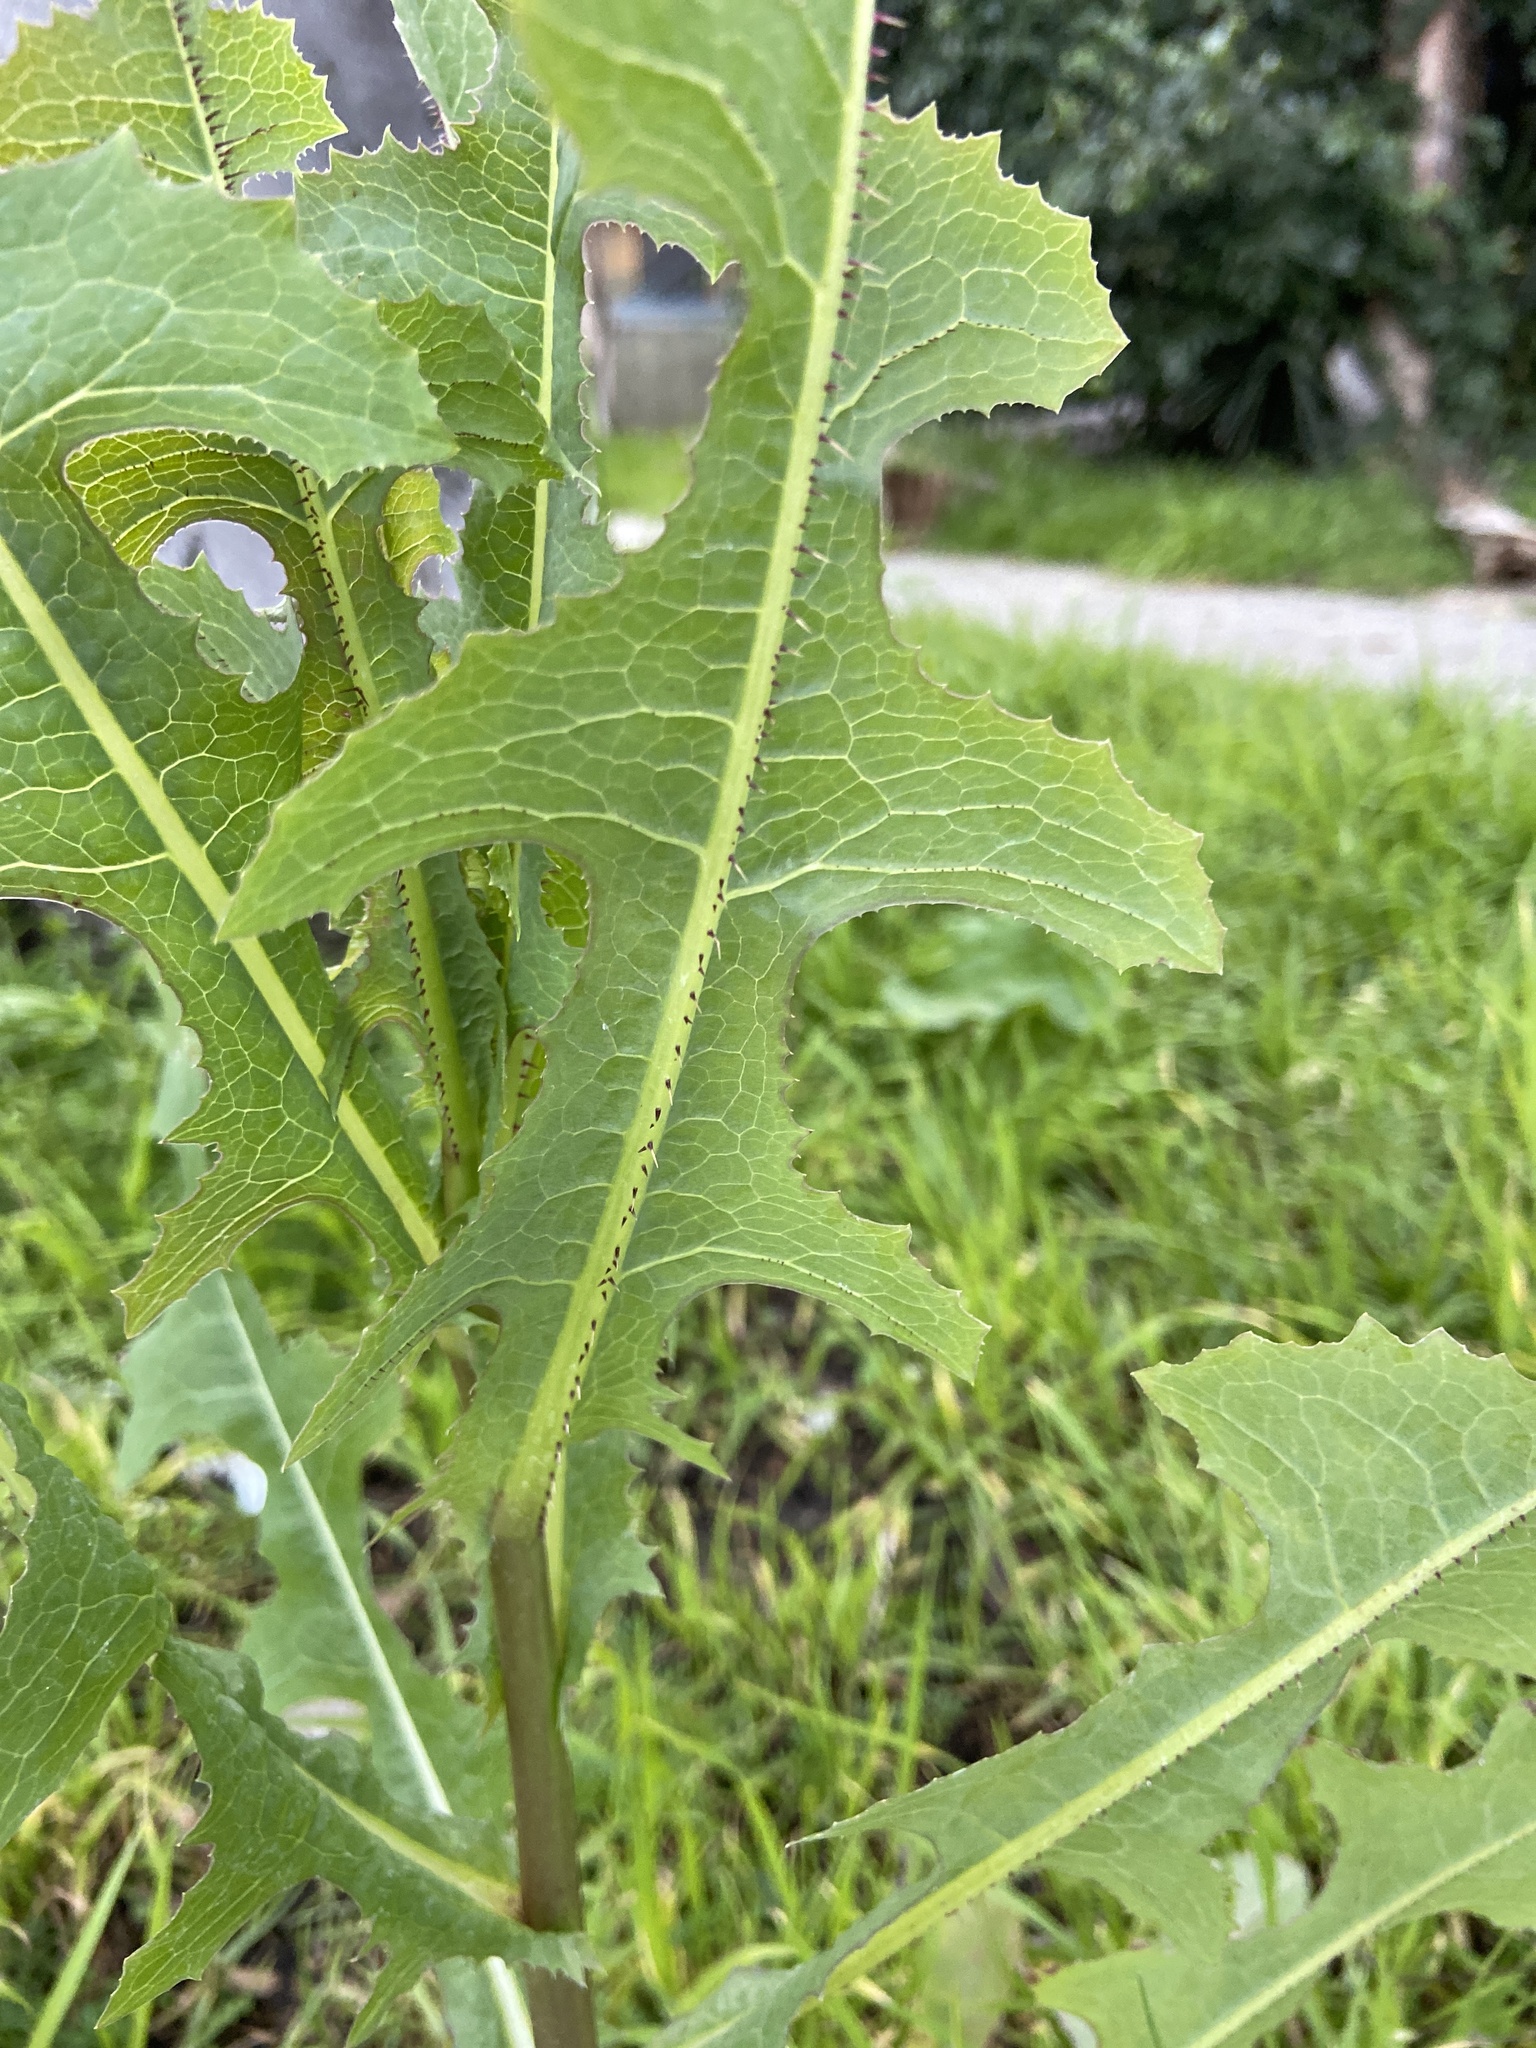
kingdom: Plantae
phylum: Tracheophyta
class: Magnoliopsida
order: Asterales
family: Asteraceae
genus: Lactuca
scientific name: Lactuca serriola
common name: Prickly lettuce
